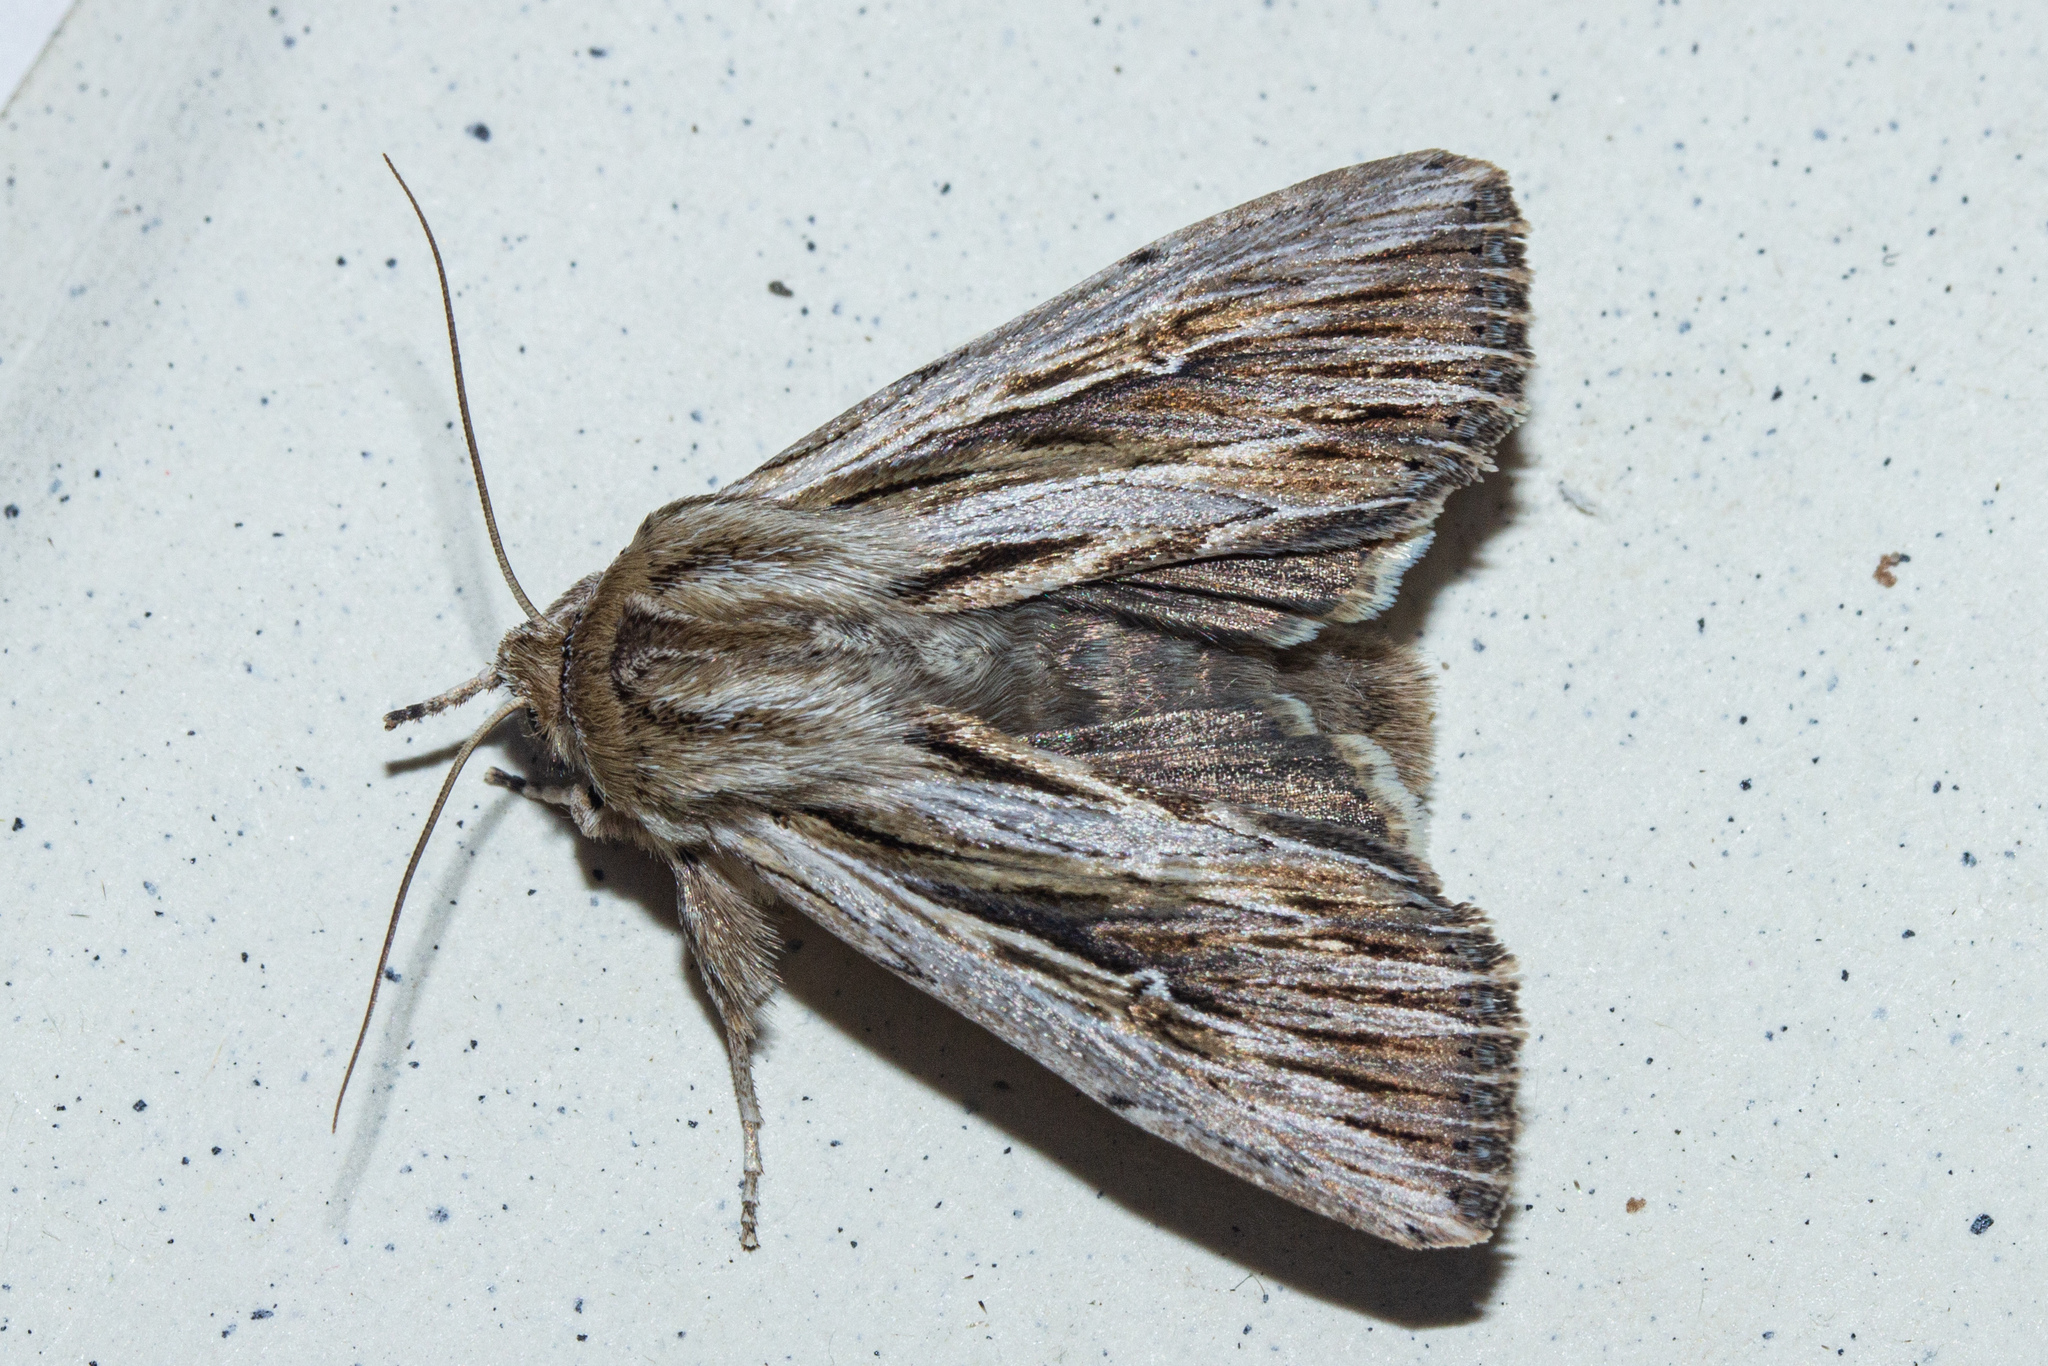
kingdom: Animalia
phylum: Arthropoda
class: Insecta
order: Lepidoptera
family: Noctuidae
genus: Persectania
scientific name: Persectania aversa
